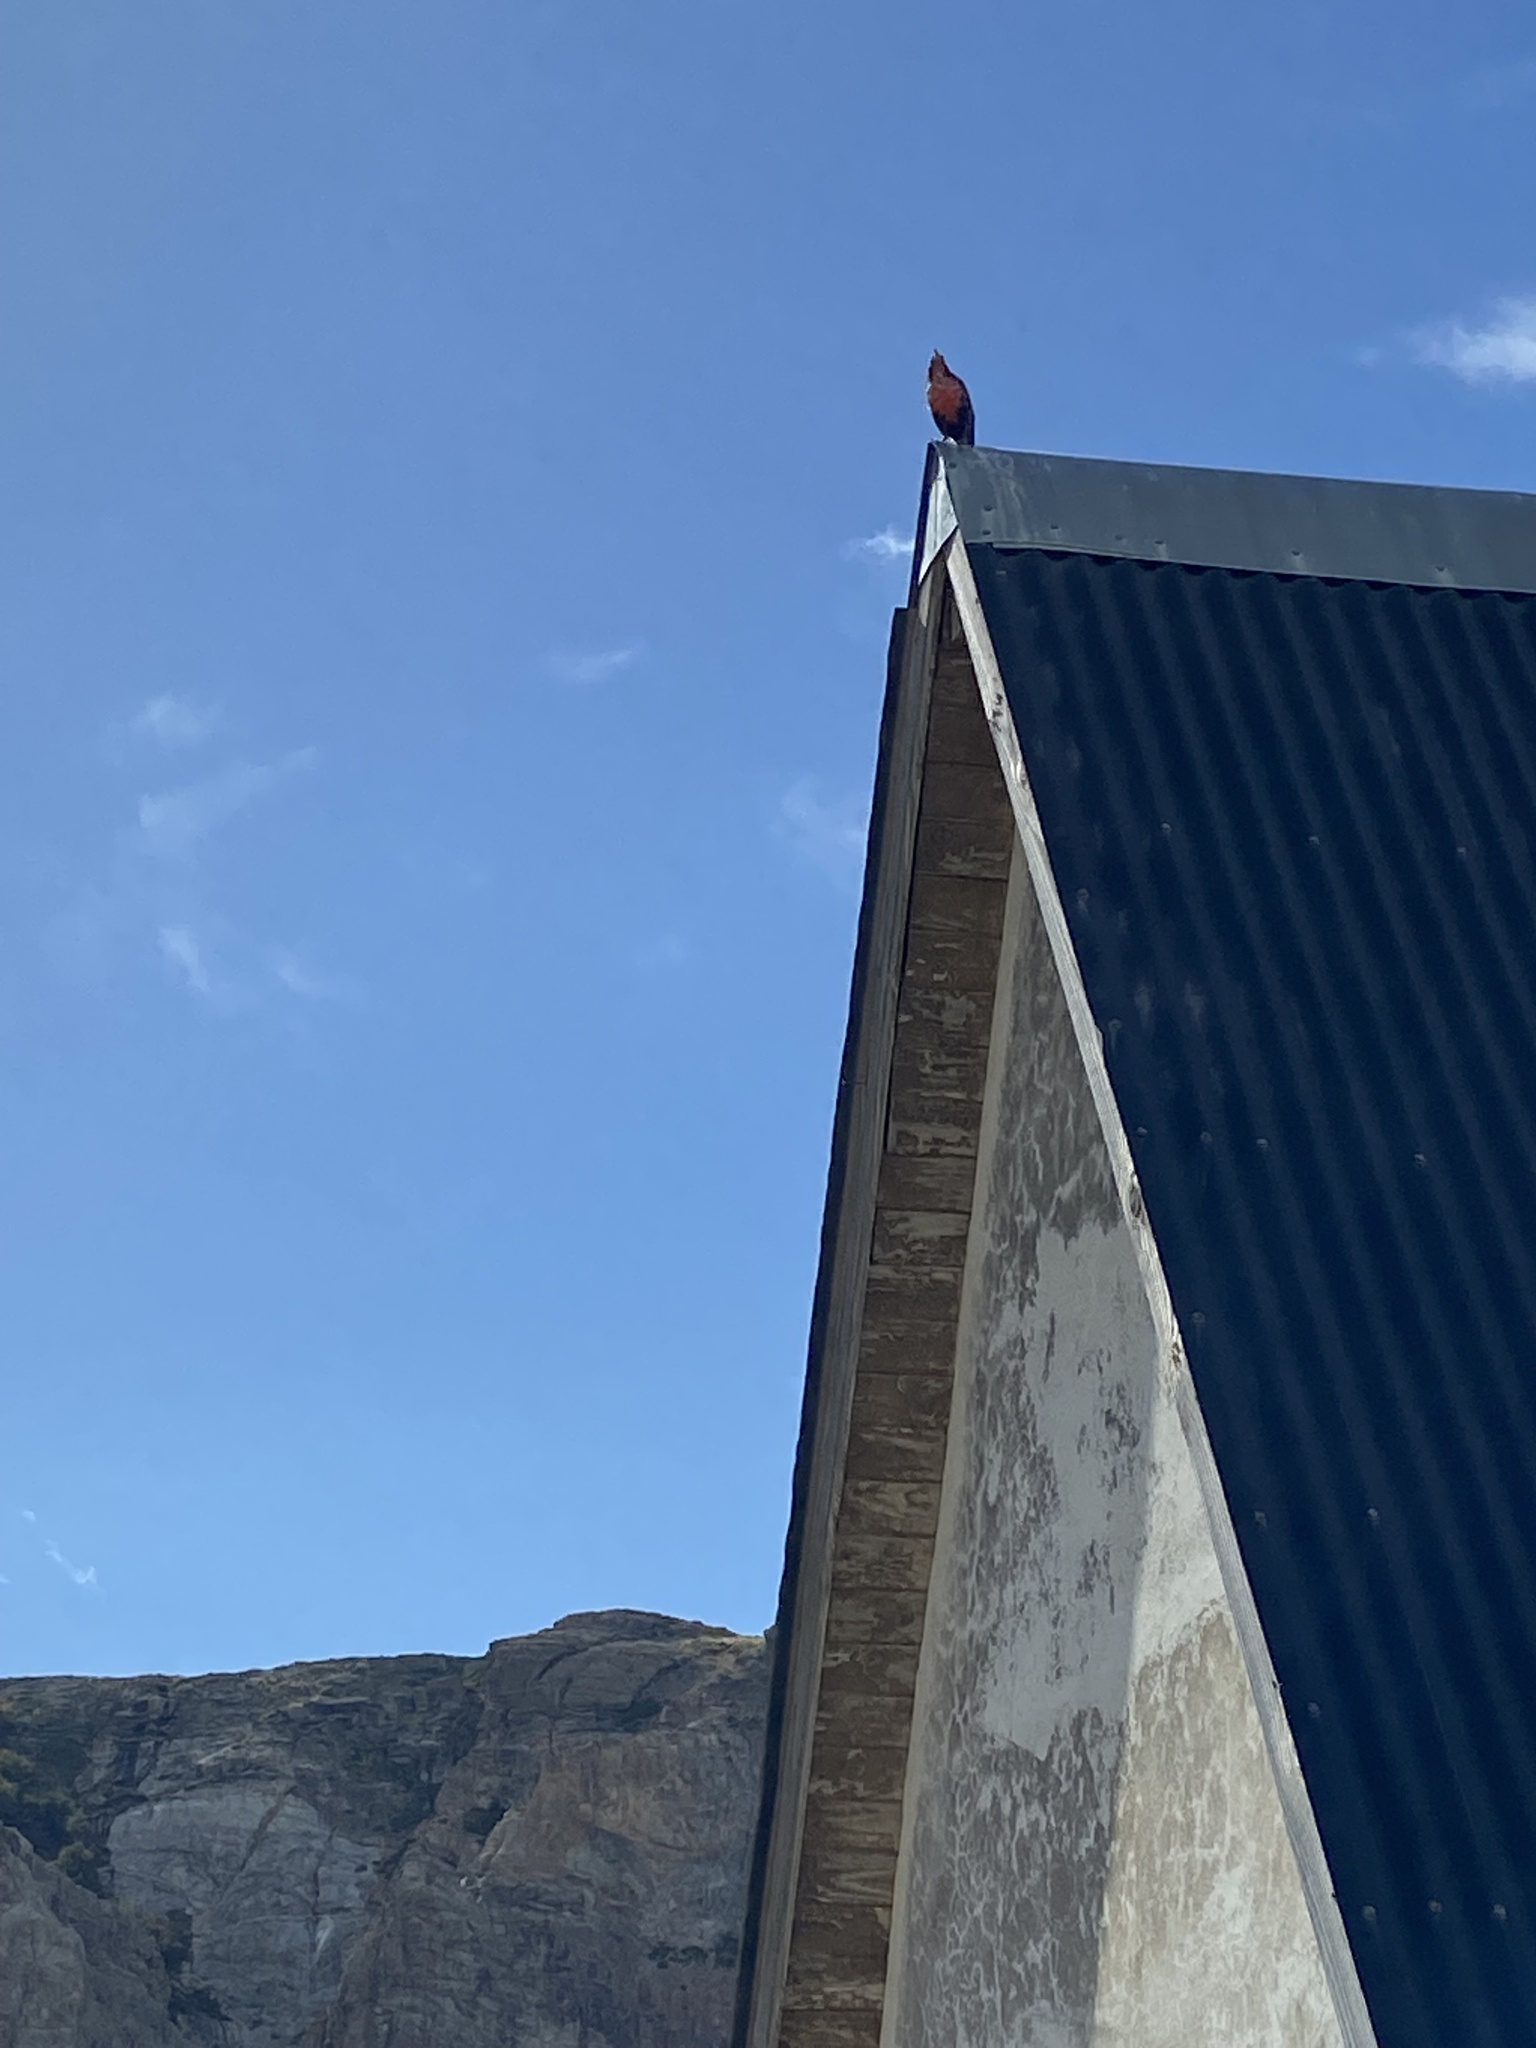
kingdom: Animalia
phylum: Chordata
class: Aves
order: Passeriformes
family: Icteridae
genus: Sturnella
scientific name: Sturnella loyca
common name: Long-tailed meadowlark
